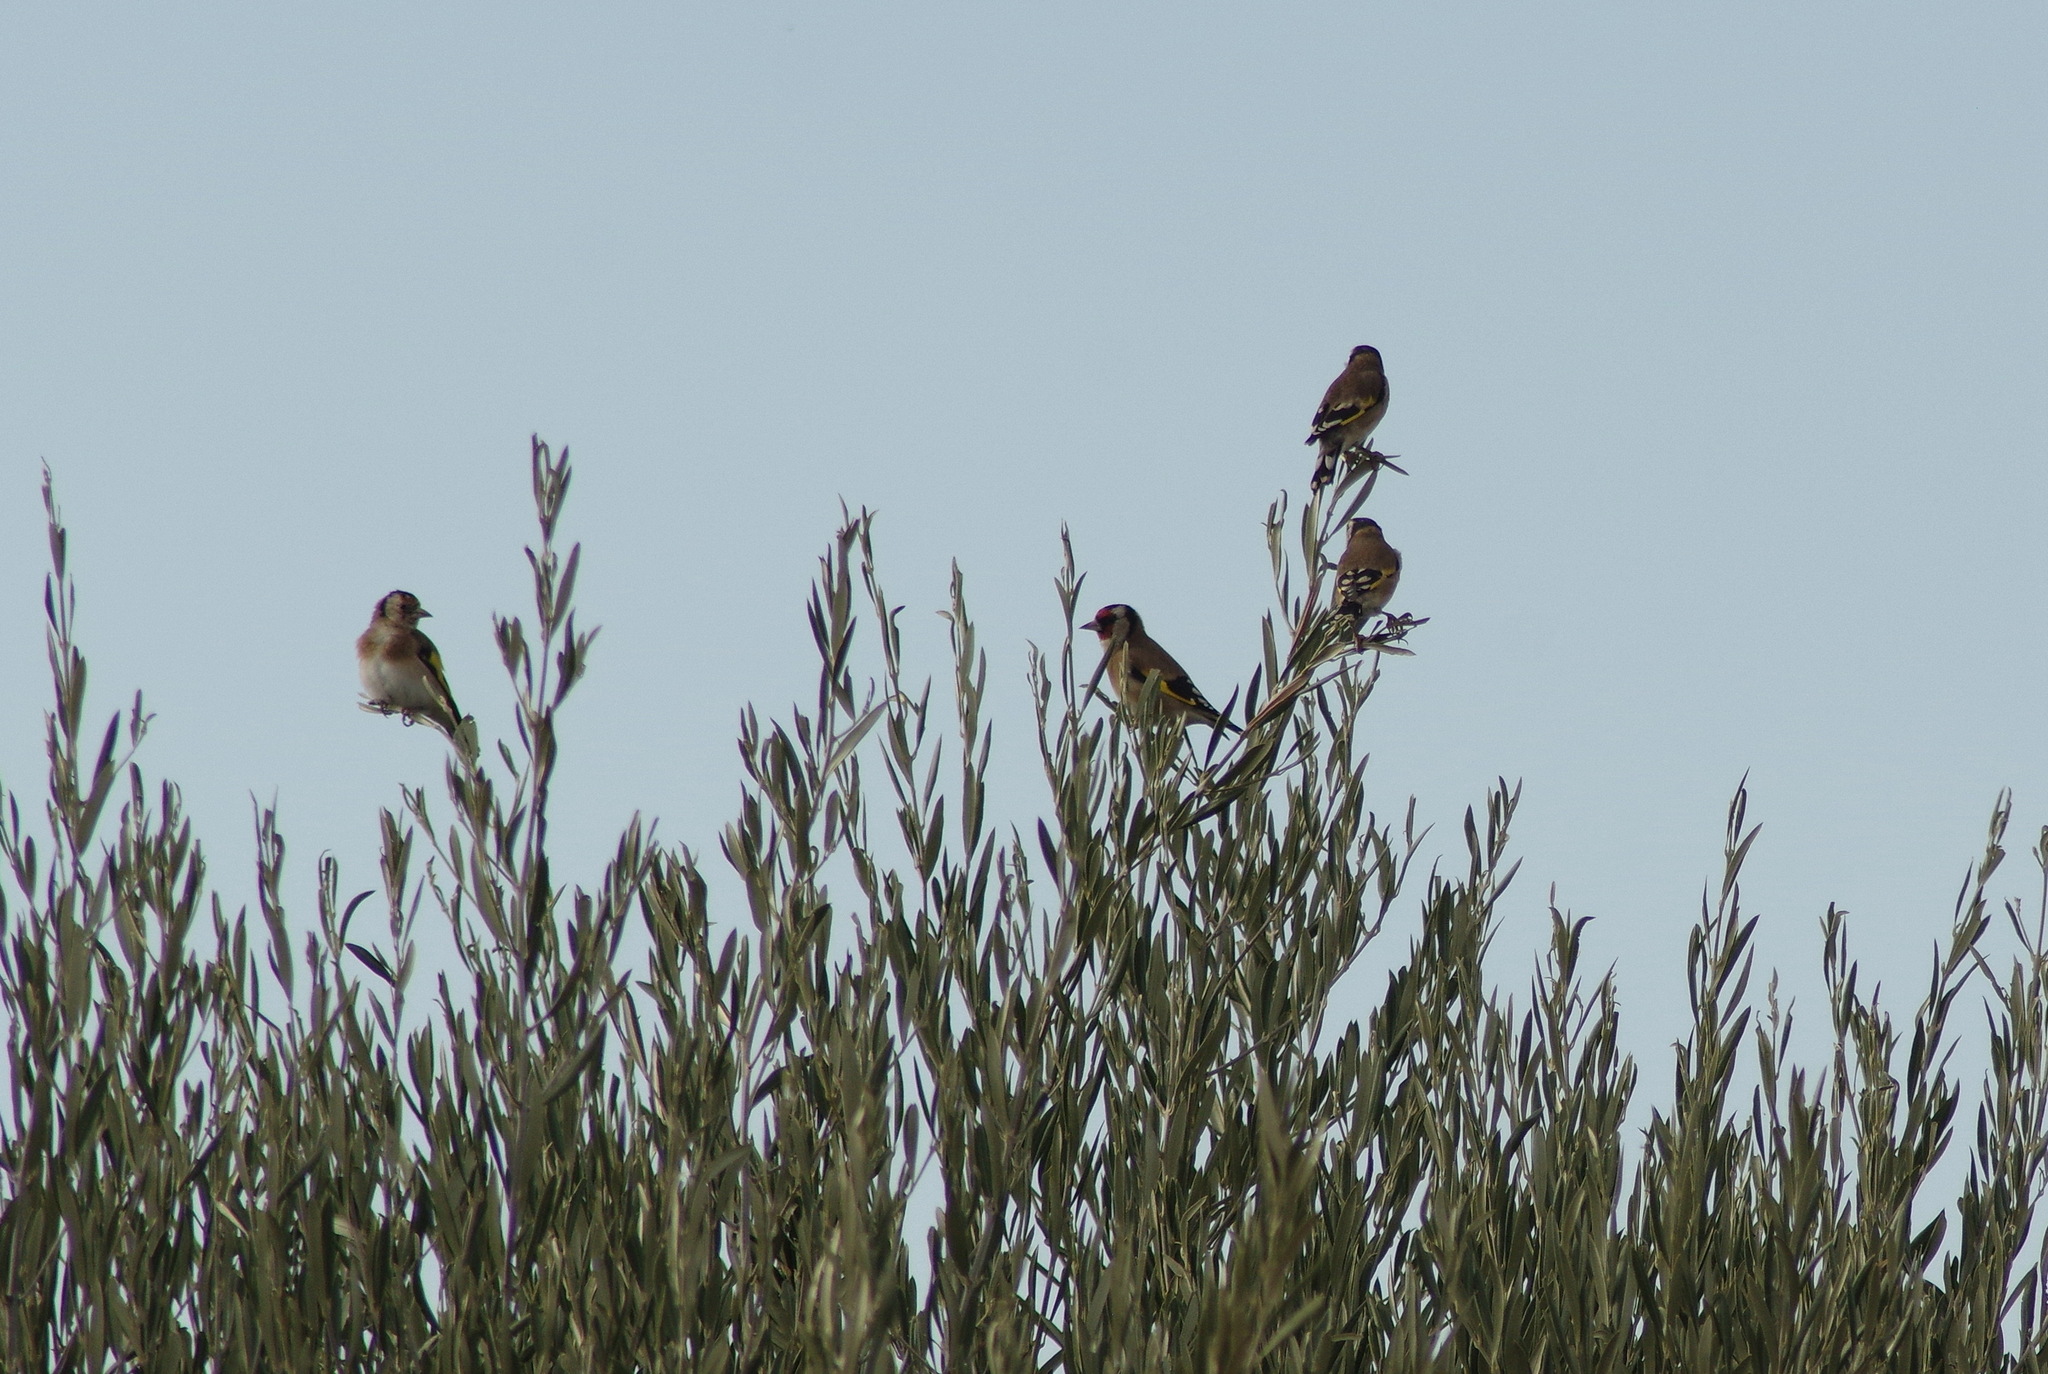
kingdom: Animalia
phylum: Chordata
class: Aves
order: Passeriformes
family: Fringillidae
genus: Carduelis
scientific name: Carduelis carduelis
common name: European goldfinch
